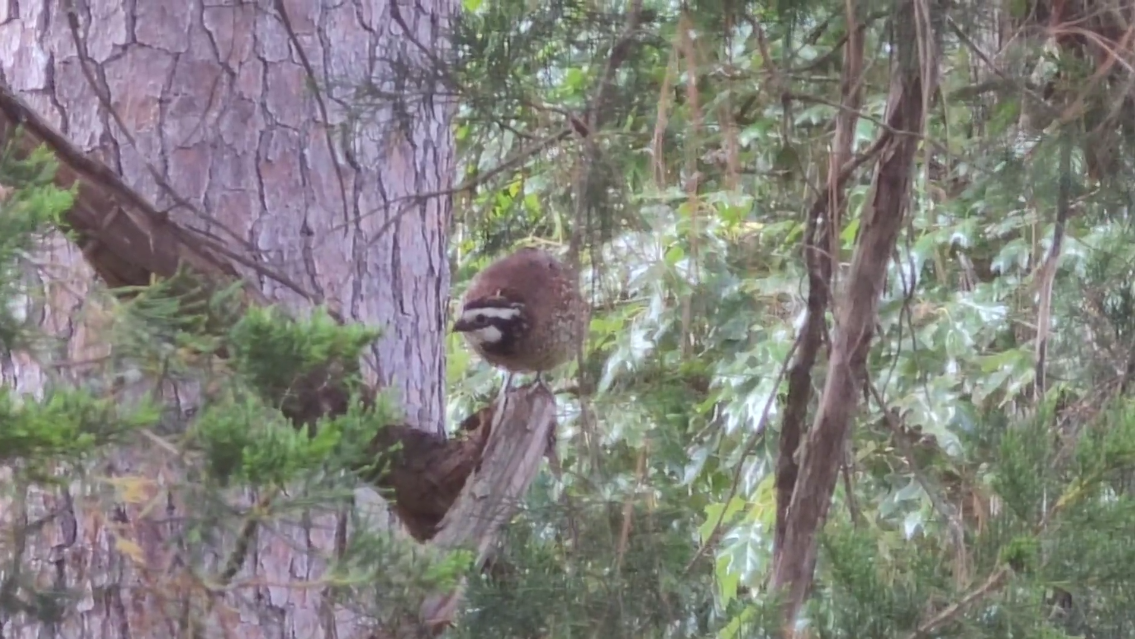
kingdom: Animalia
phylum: Chordata
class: Aves
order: Galliformes
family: Odontophoridae
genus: Colinus
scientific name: Colinus virginianus
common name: Northern bobwhite
